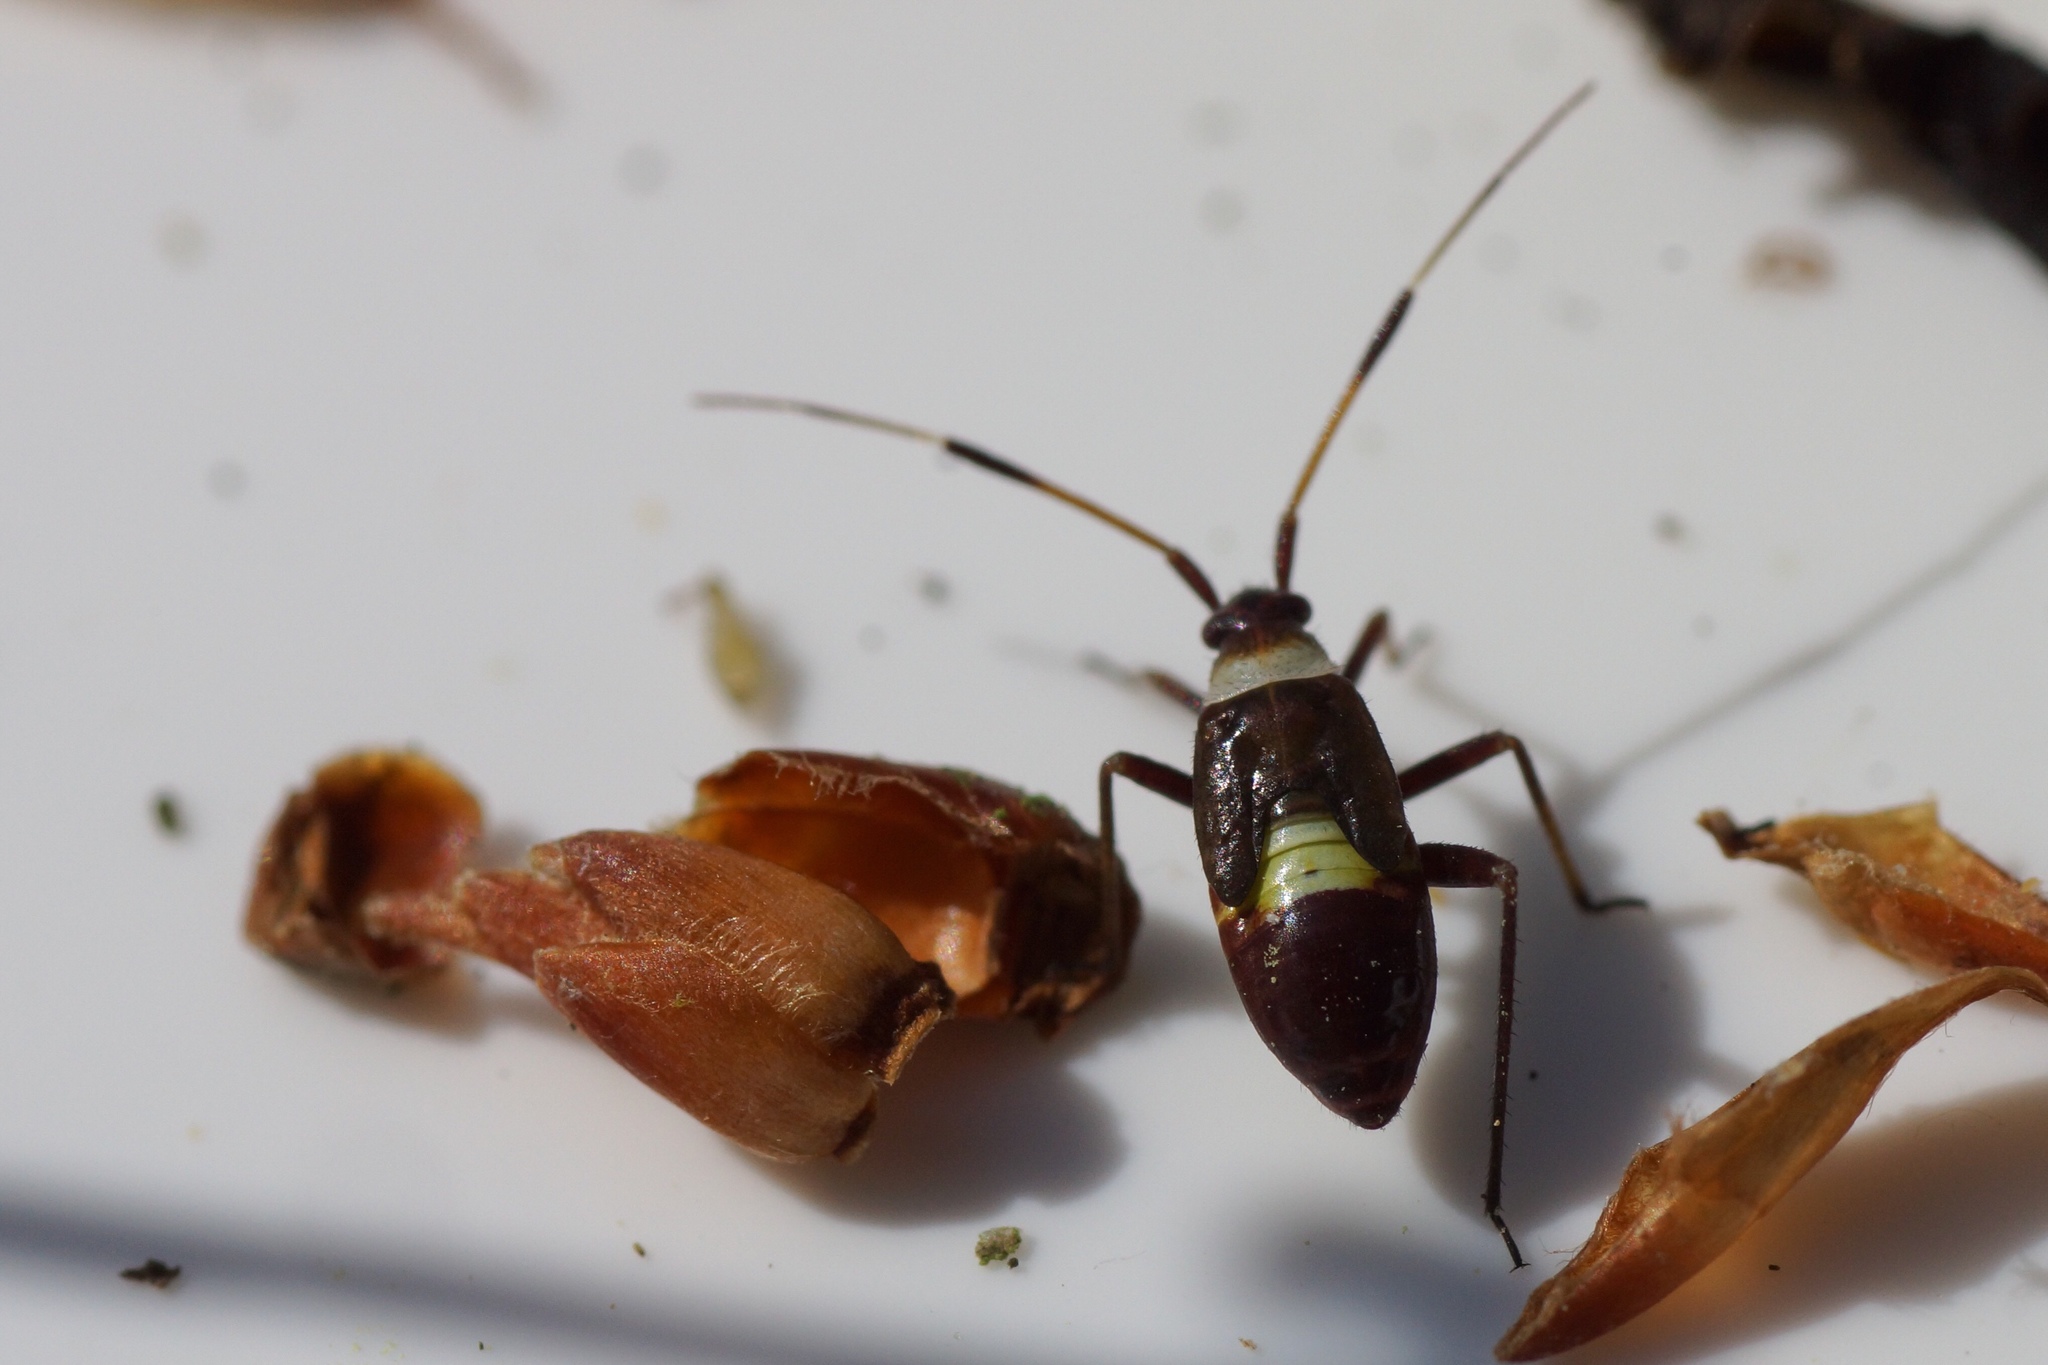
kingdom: Animalia
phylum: Arthropoda
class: Insecta
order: Hemiptera
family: Miridae
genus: Closterotomus
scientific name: Closterotomus biclavatus
